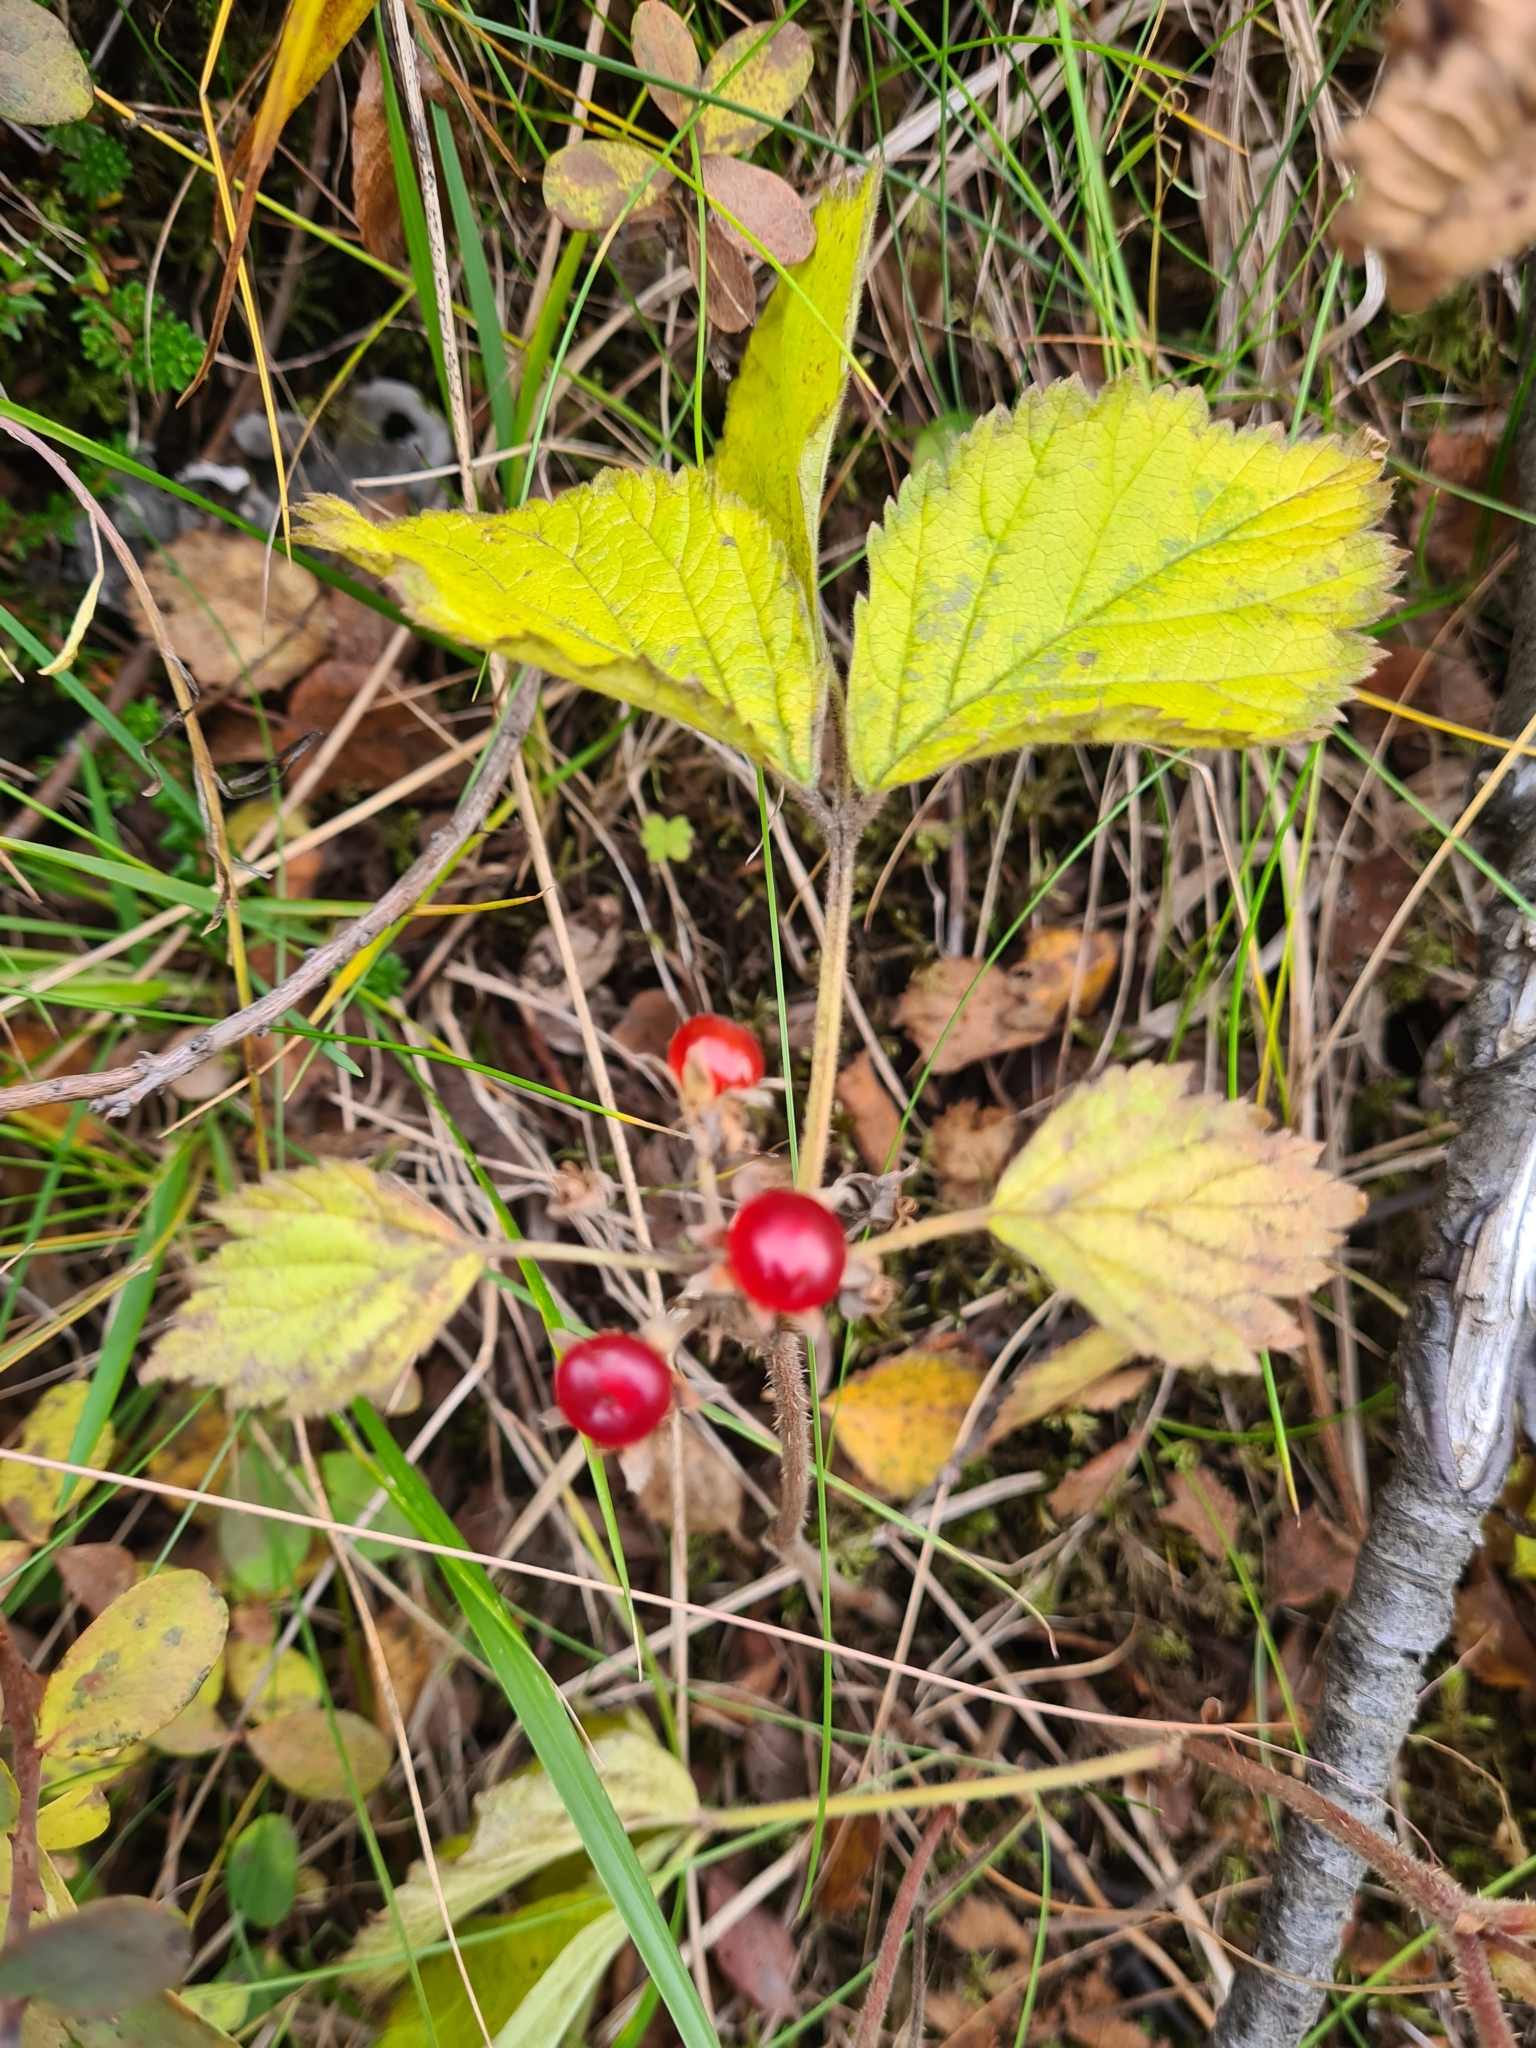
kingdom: Plantae
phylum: Tracheophyta
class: Magnoliopsida
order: Rosales
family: Rosaceae
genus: Rubus
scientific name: Rubus saxatilis
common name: Stone bramble
